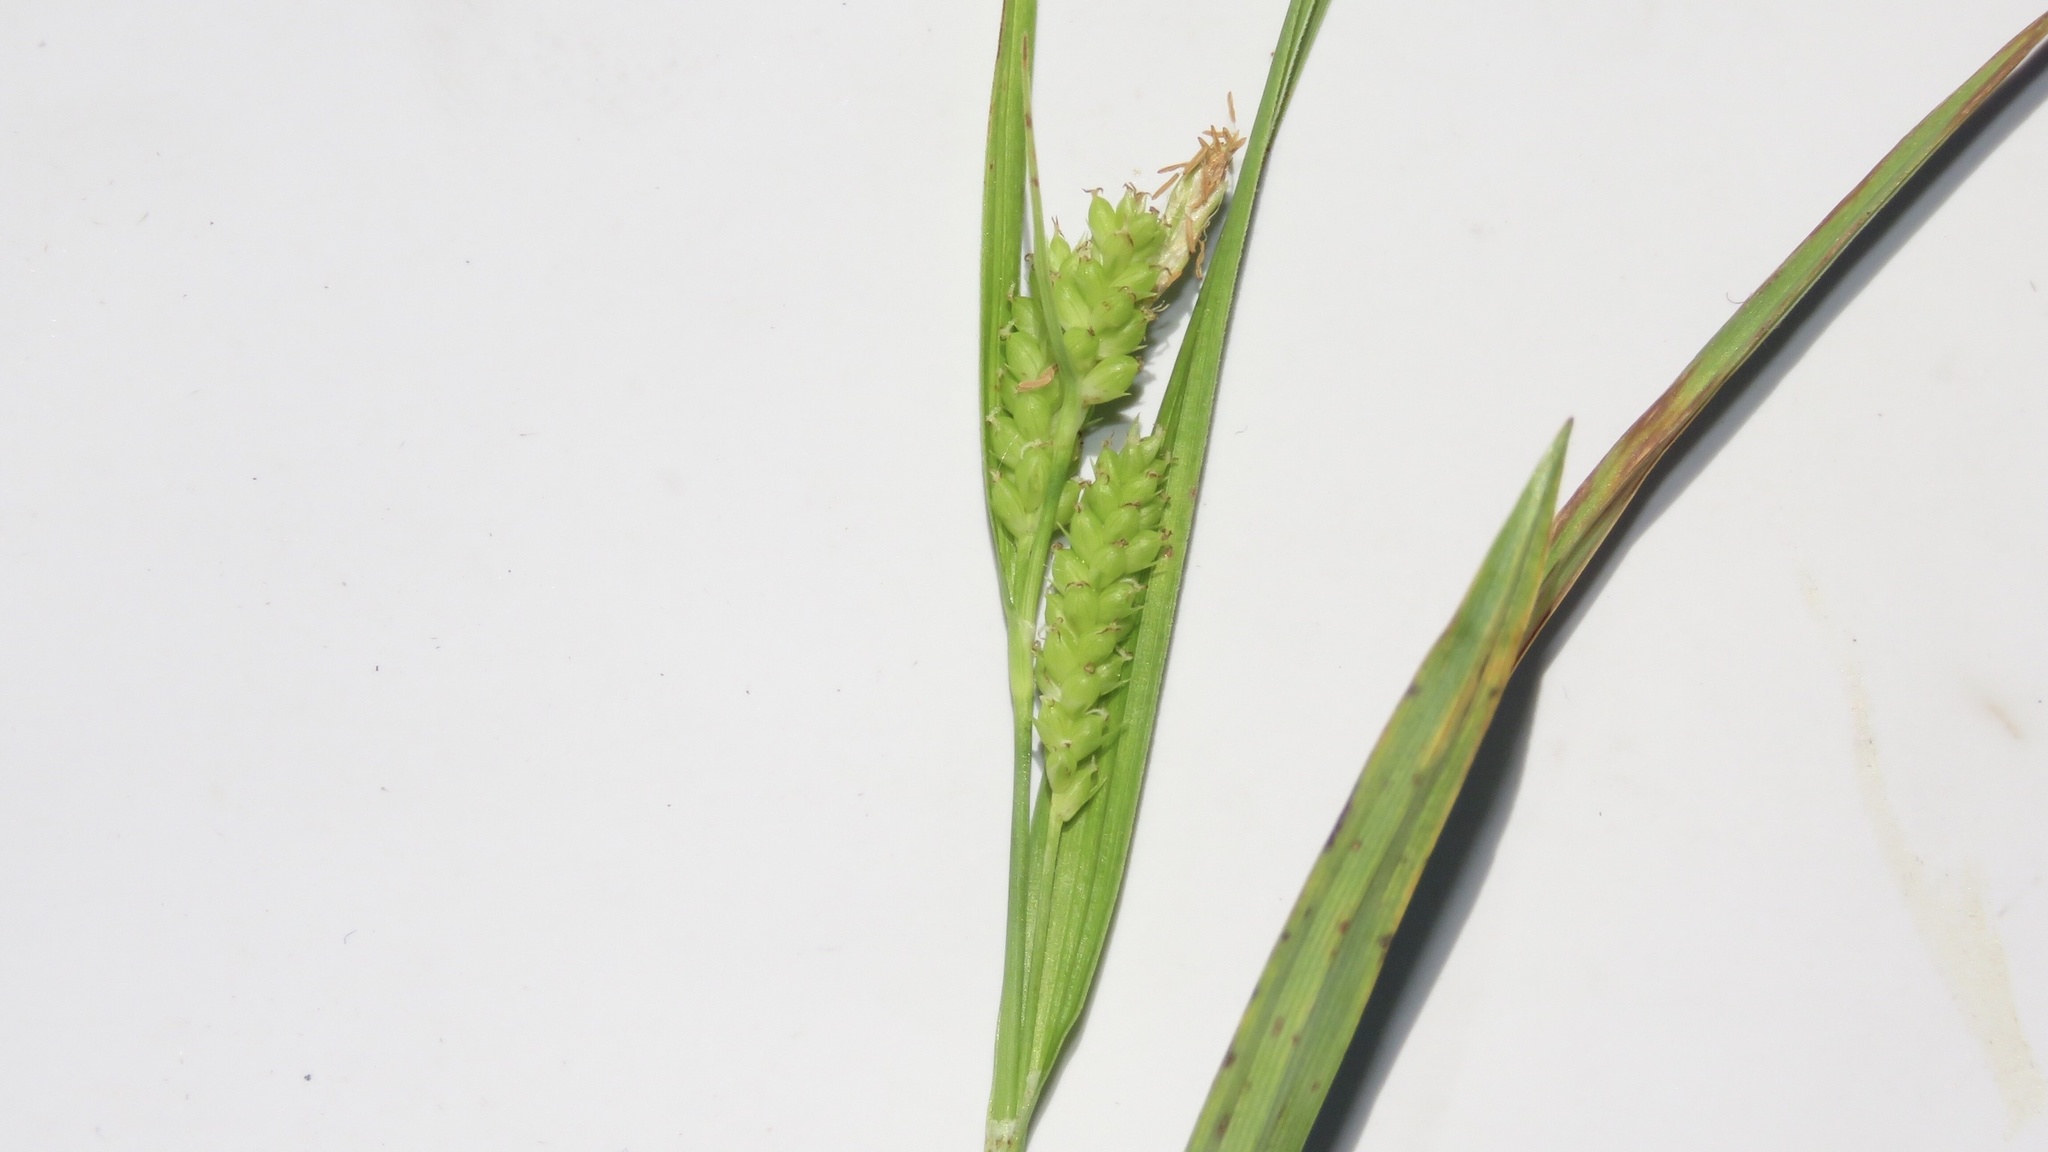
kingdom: Plantae
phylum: Tracheophyta
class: Liliopsida
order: Poales
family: Cyperaceae
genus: Carex
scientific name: Carex granularis
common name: Granular sedge
